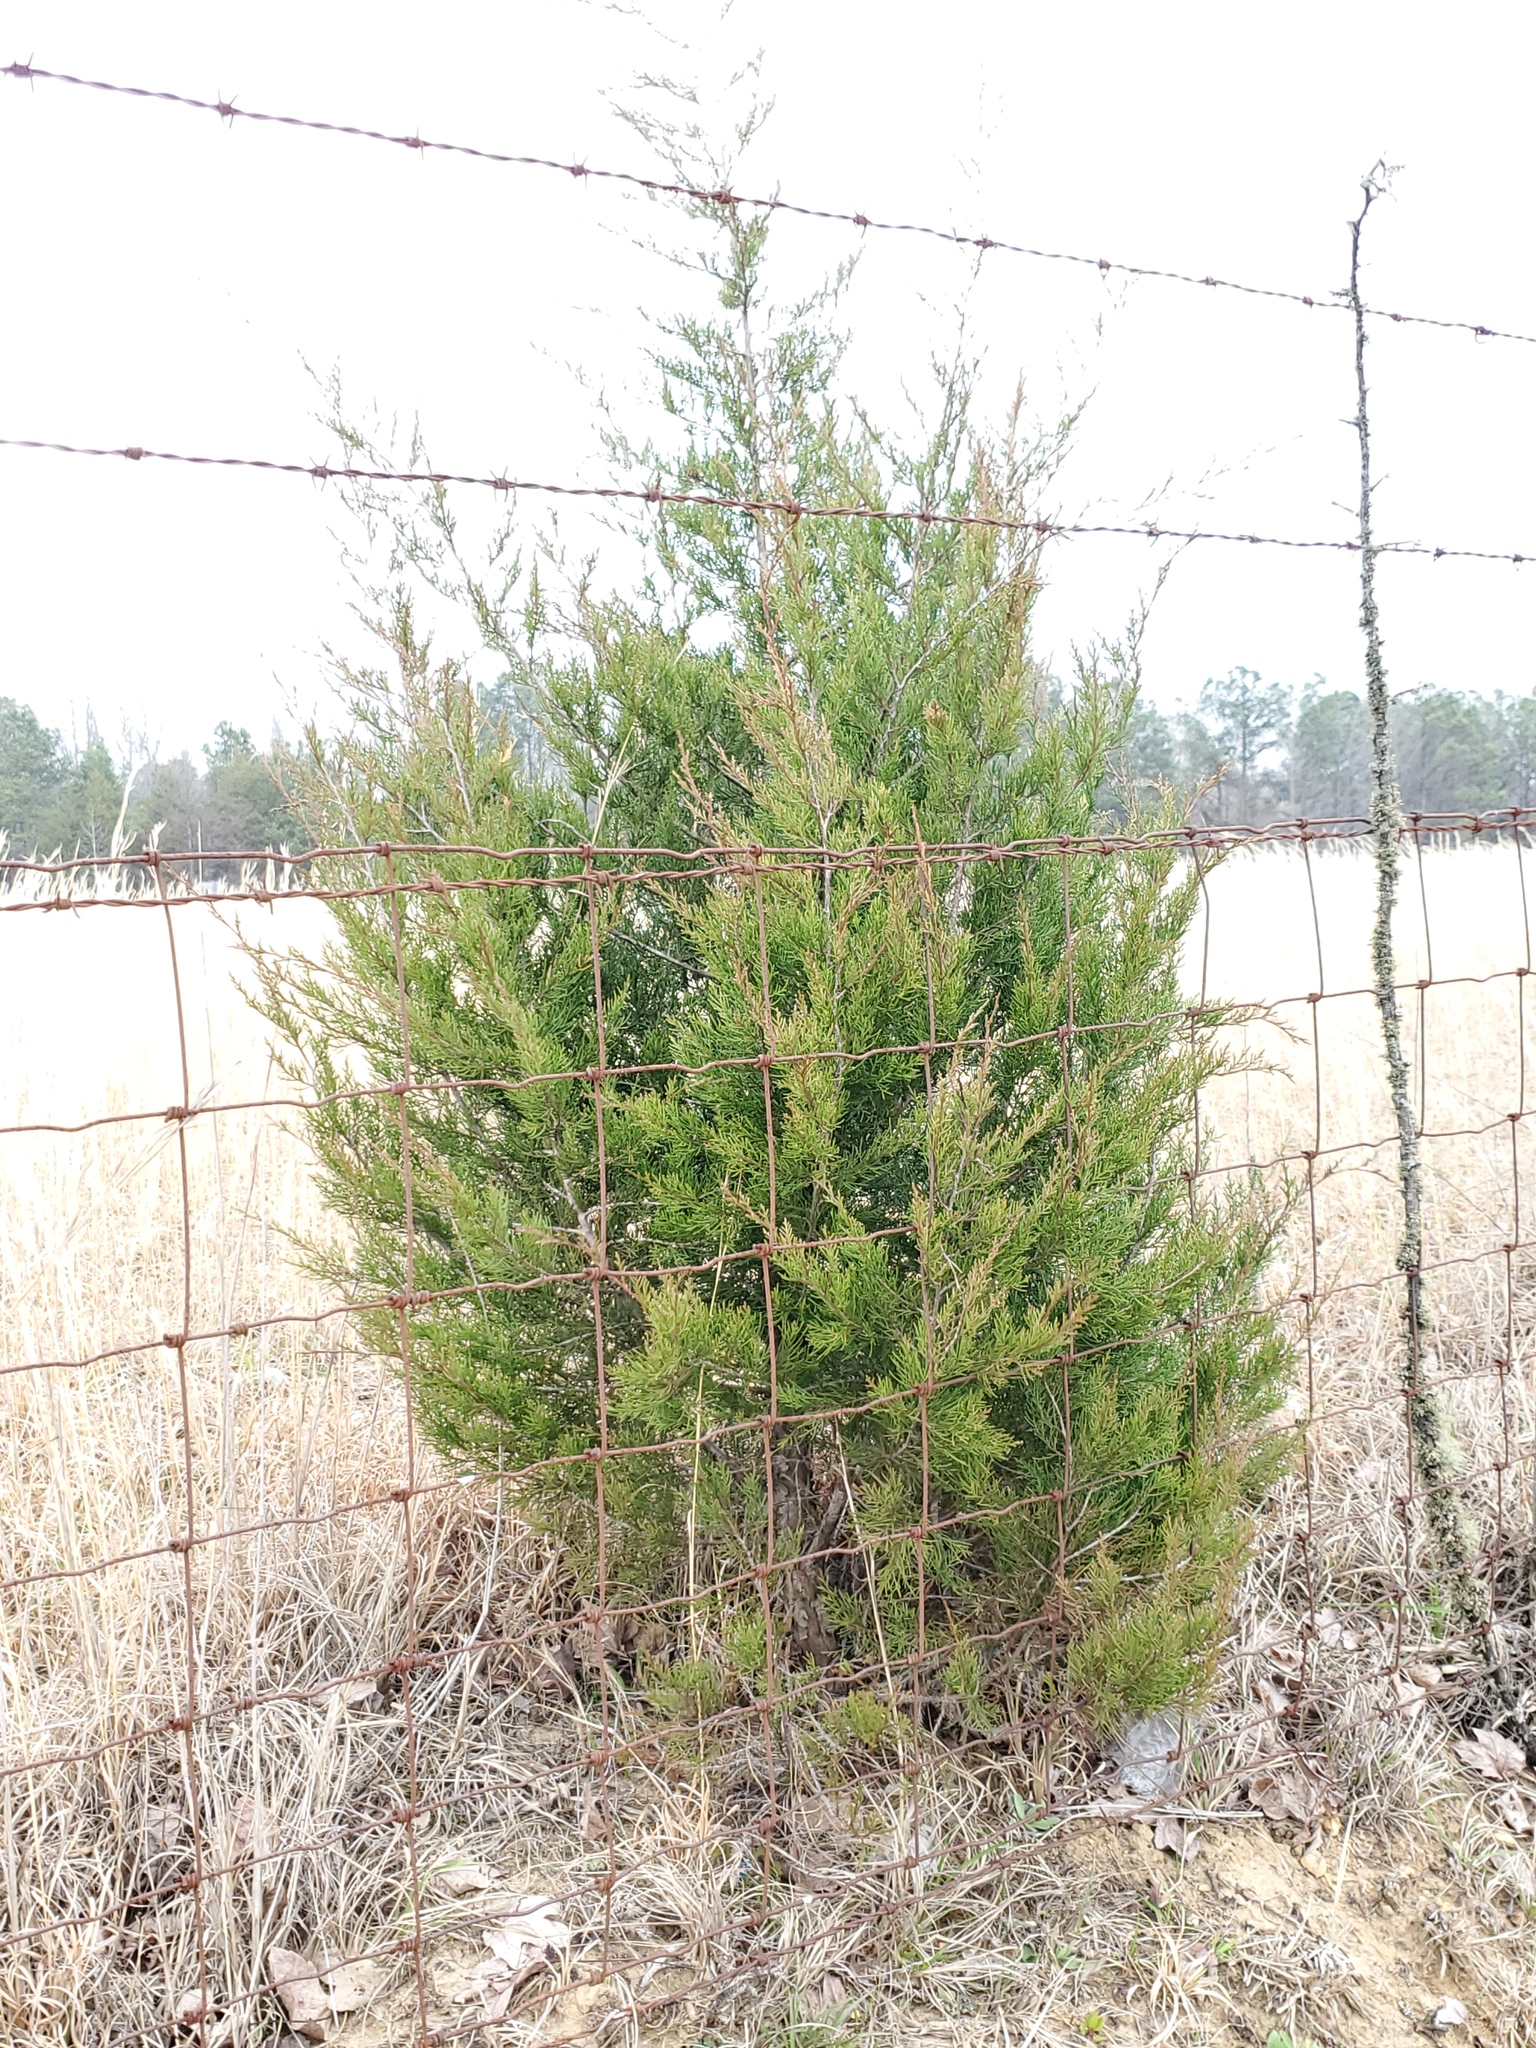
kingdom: Plantae
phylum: Tracheophyta
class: Pinopsida
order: Pinales
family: Cupressaceae
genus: Juniperus
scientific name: Juniperus virginiana
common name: Red juniper
